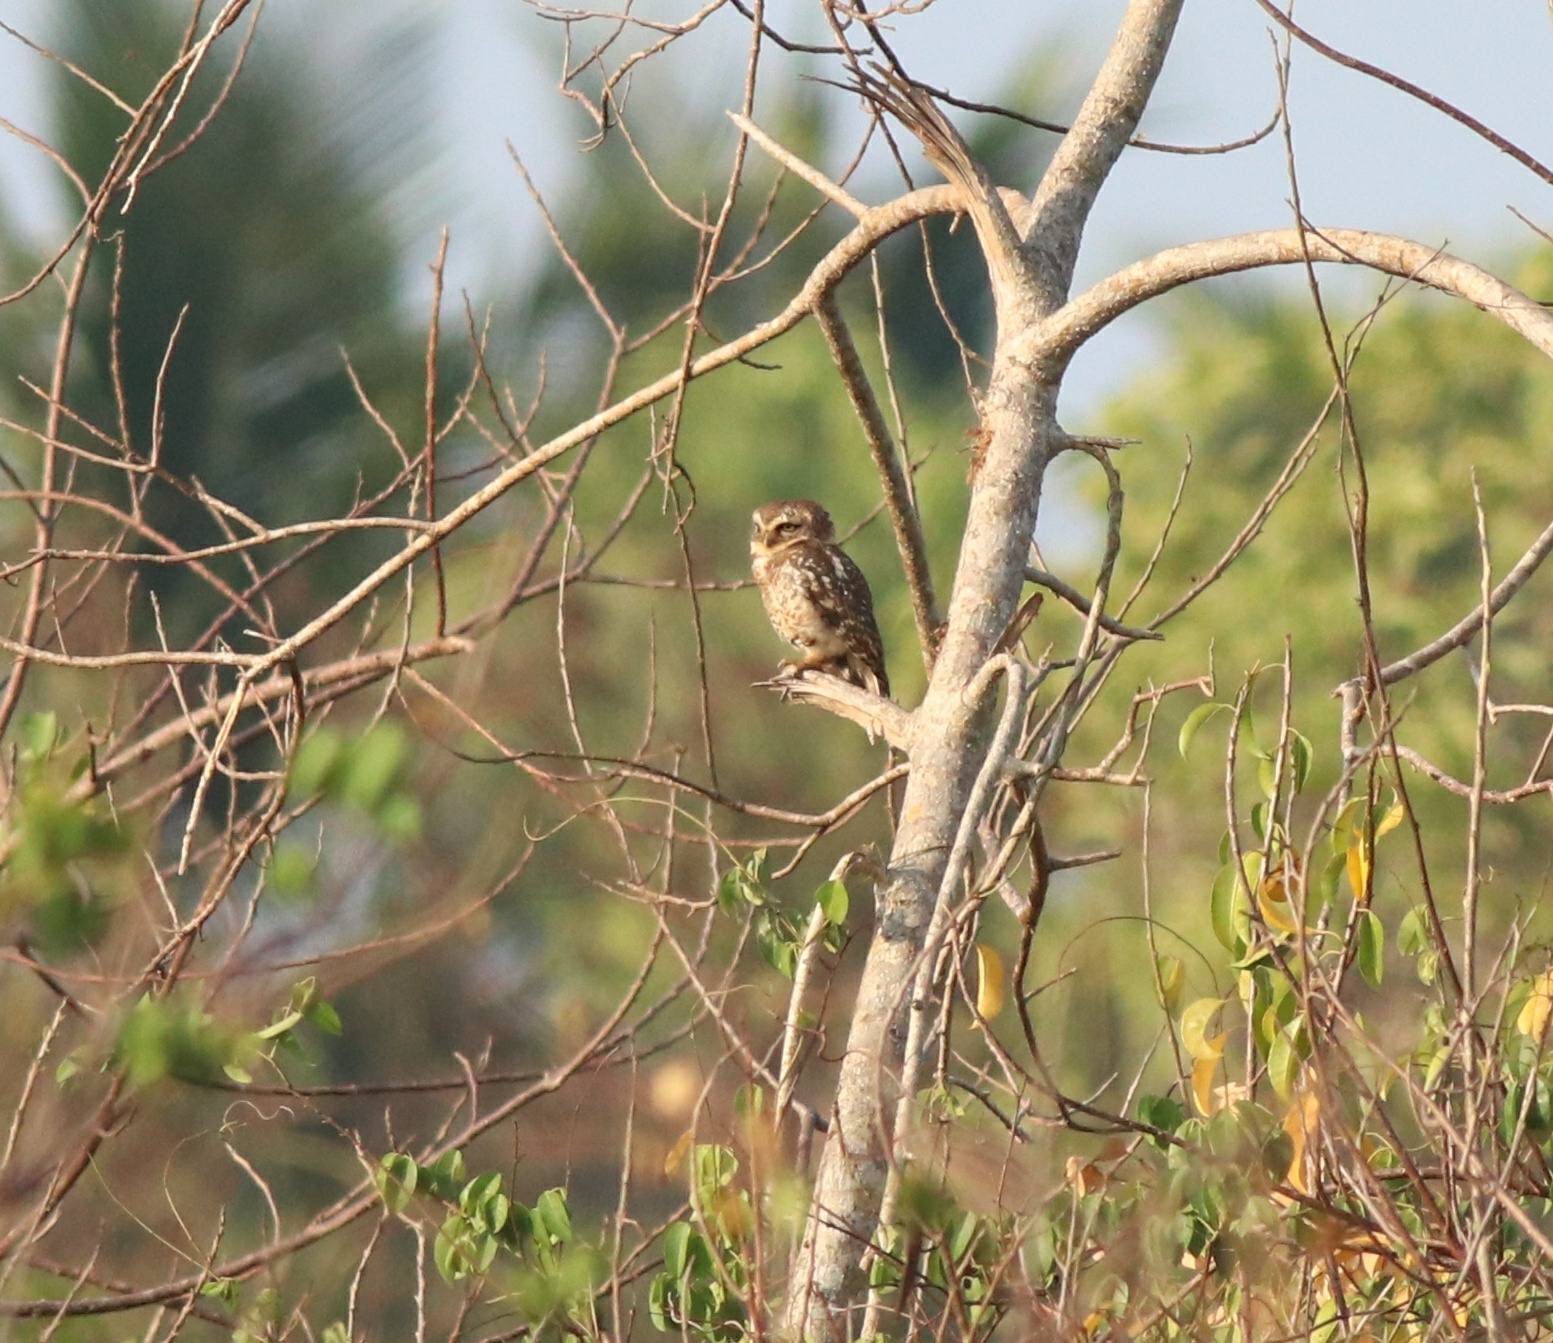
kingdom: Animalia
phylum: Chordata
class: Aves
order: Strigiformes
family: Strigidae
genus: Athene
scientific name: Athene brama
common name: Spotted owlet
